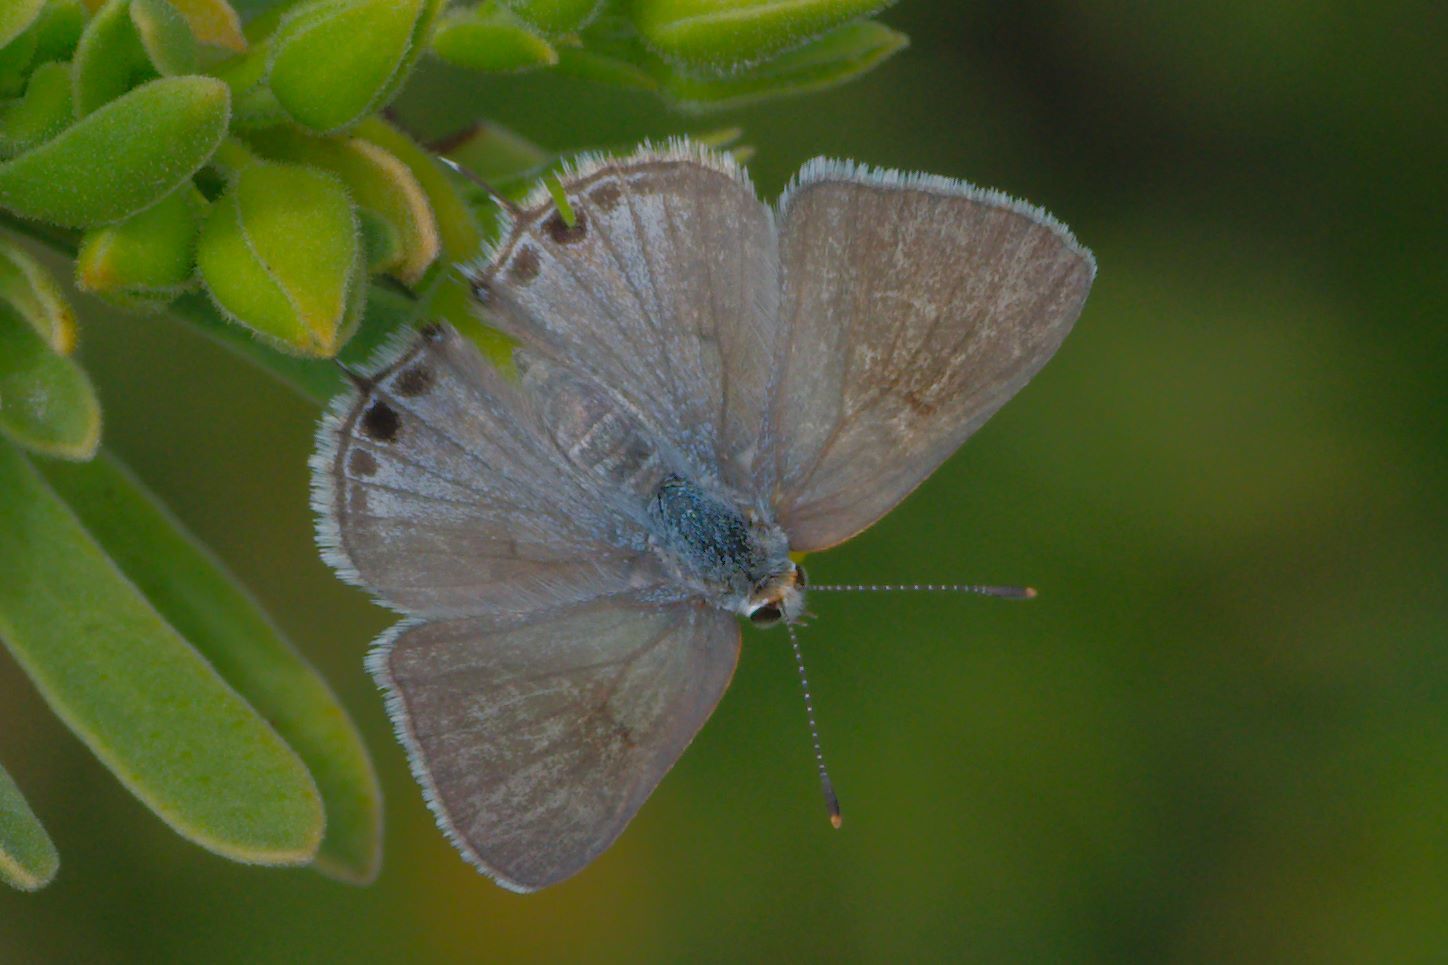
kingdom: Animalia
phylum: Arthropoda
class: Insecta
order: Lepidoptera
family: Lycaenidae
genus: Callicista
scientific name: Callicista columella
